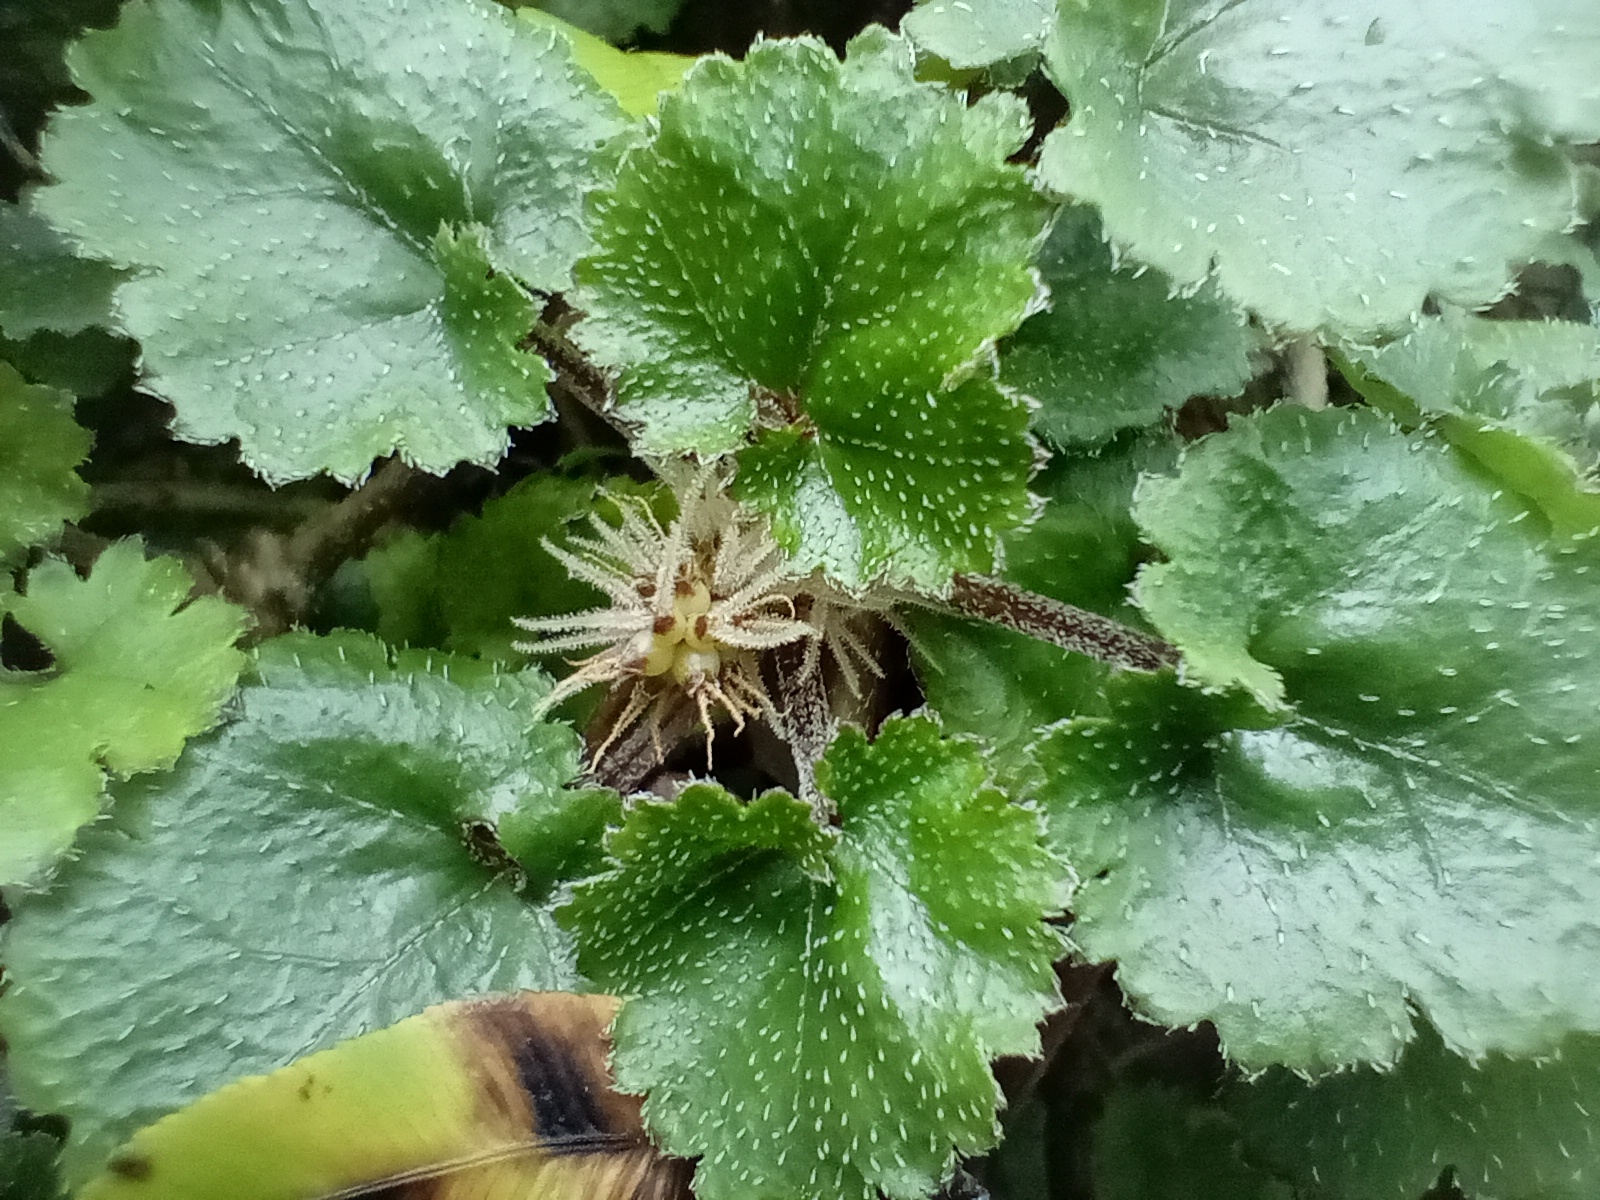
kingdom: Plantae
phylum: Tracheophyta
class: Magnoliopsida
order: Gunnerales
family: Gunneraceae
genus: Gunnera
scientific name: Gunnera monoica
